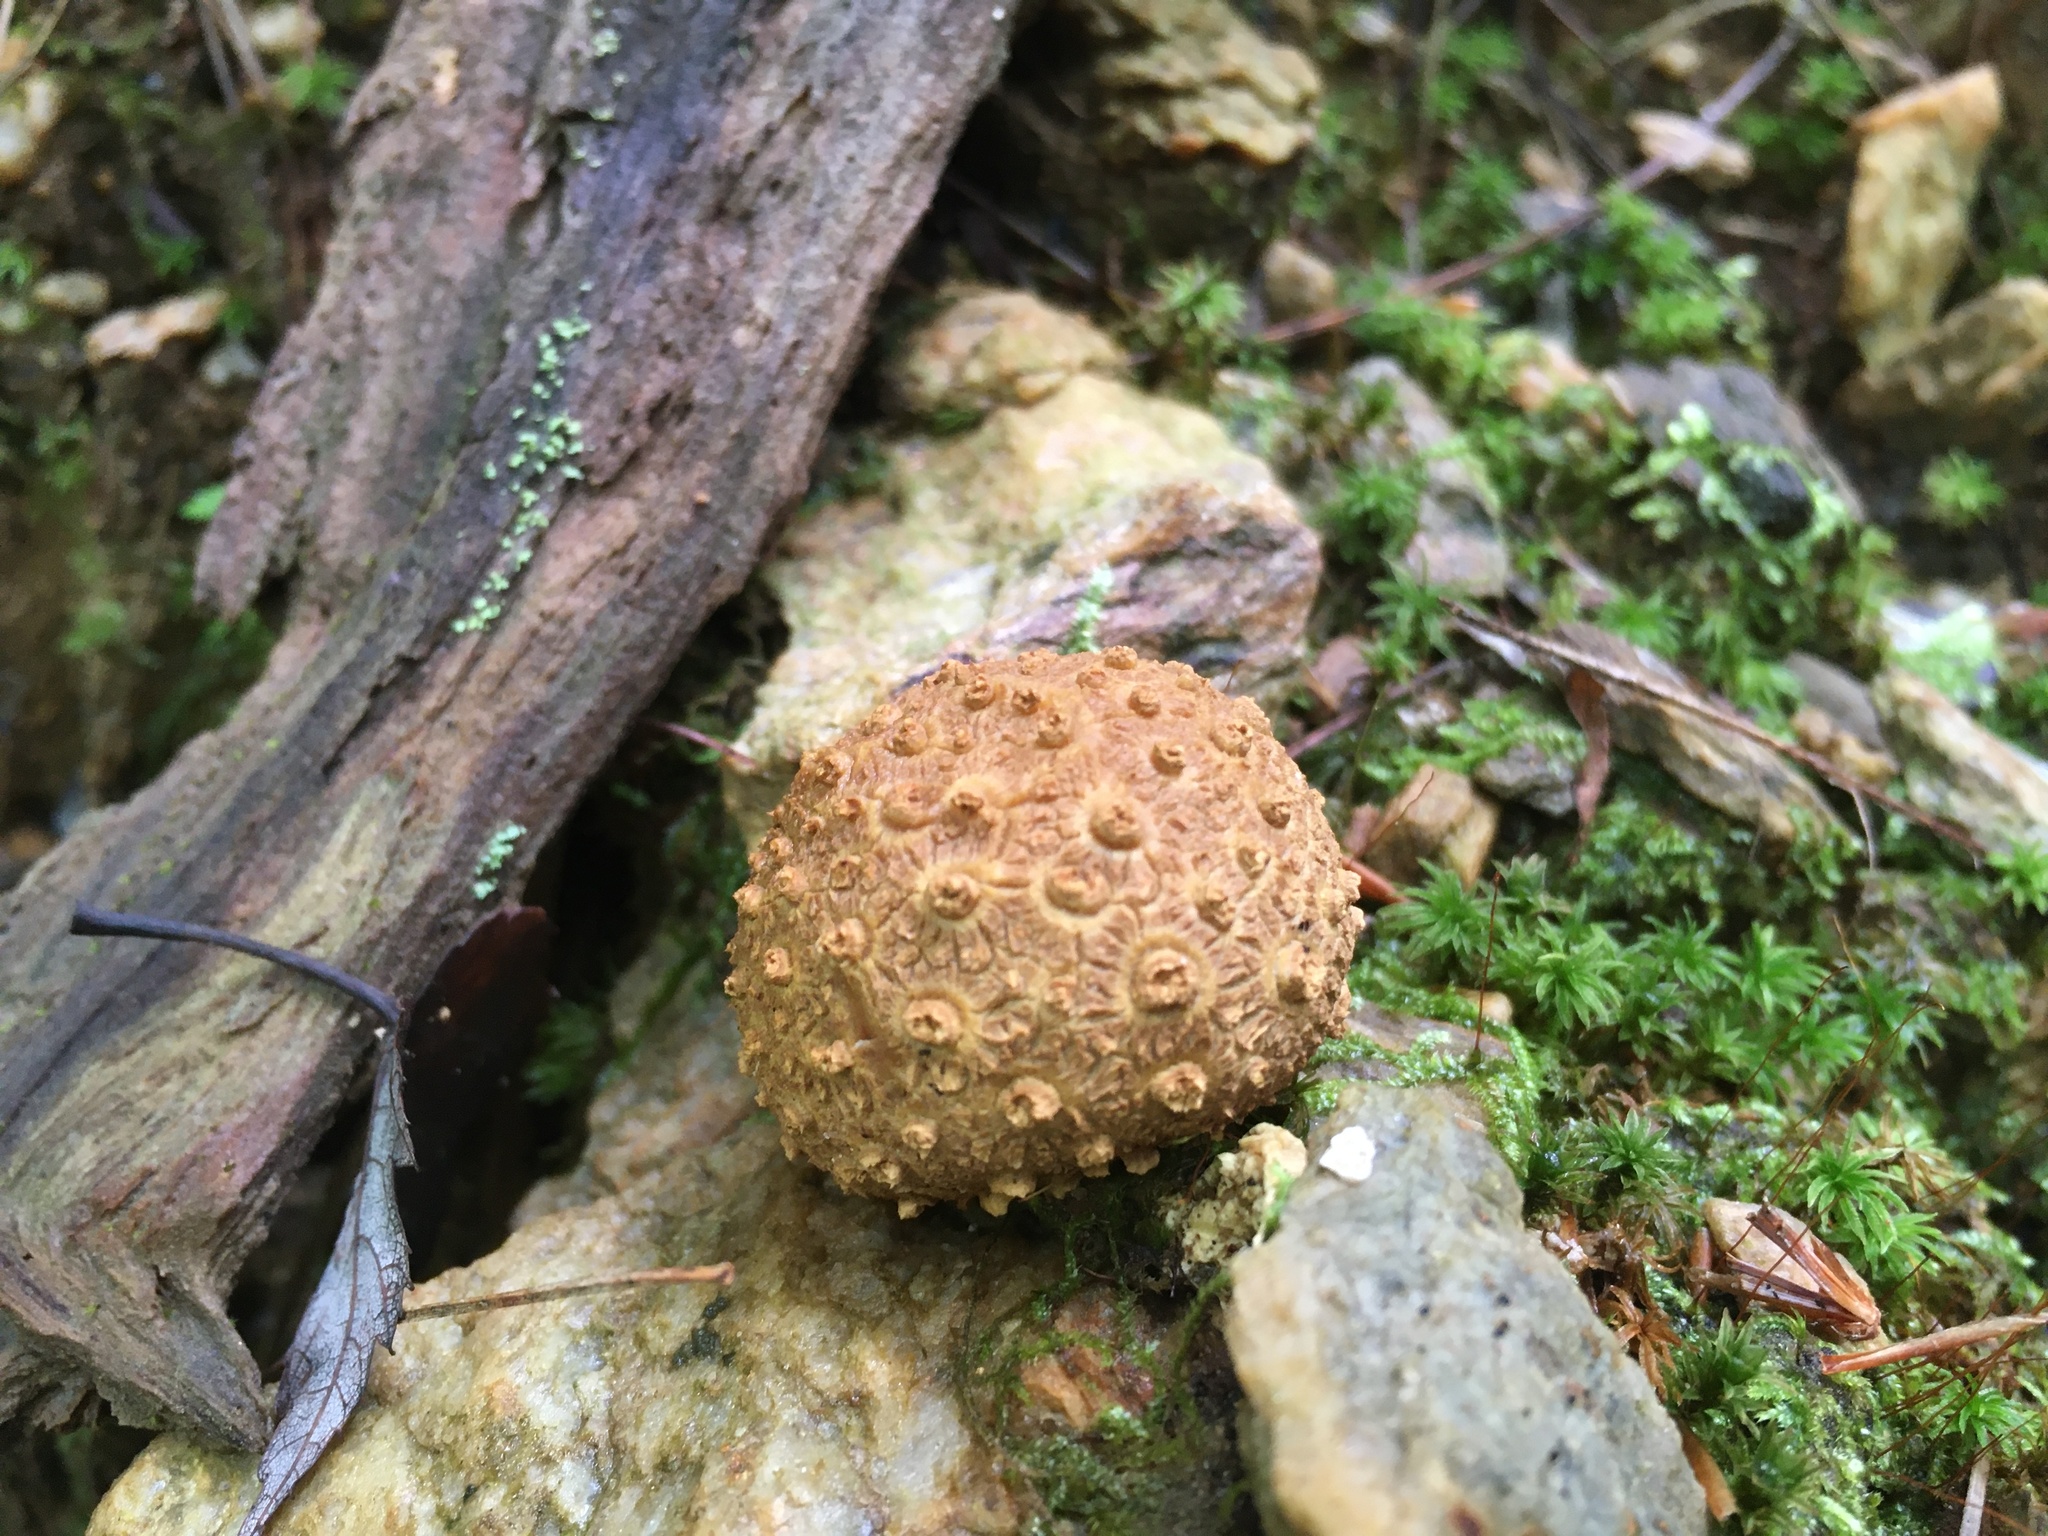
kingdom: Fungi
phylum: Basidiomycota
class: Agaricomycetes
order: Boletales
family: Sclerodermataceae
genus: Scleroderma
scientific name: Scleroderma citrinum
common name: Common earthball
